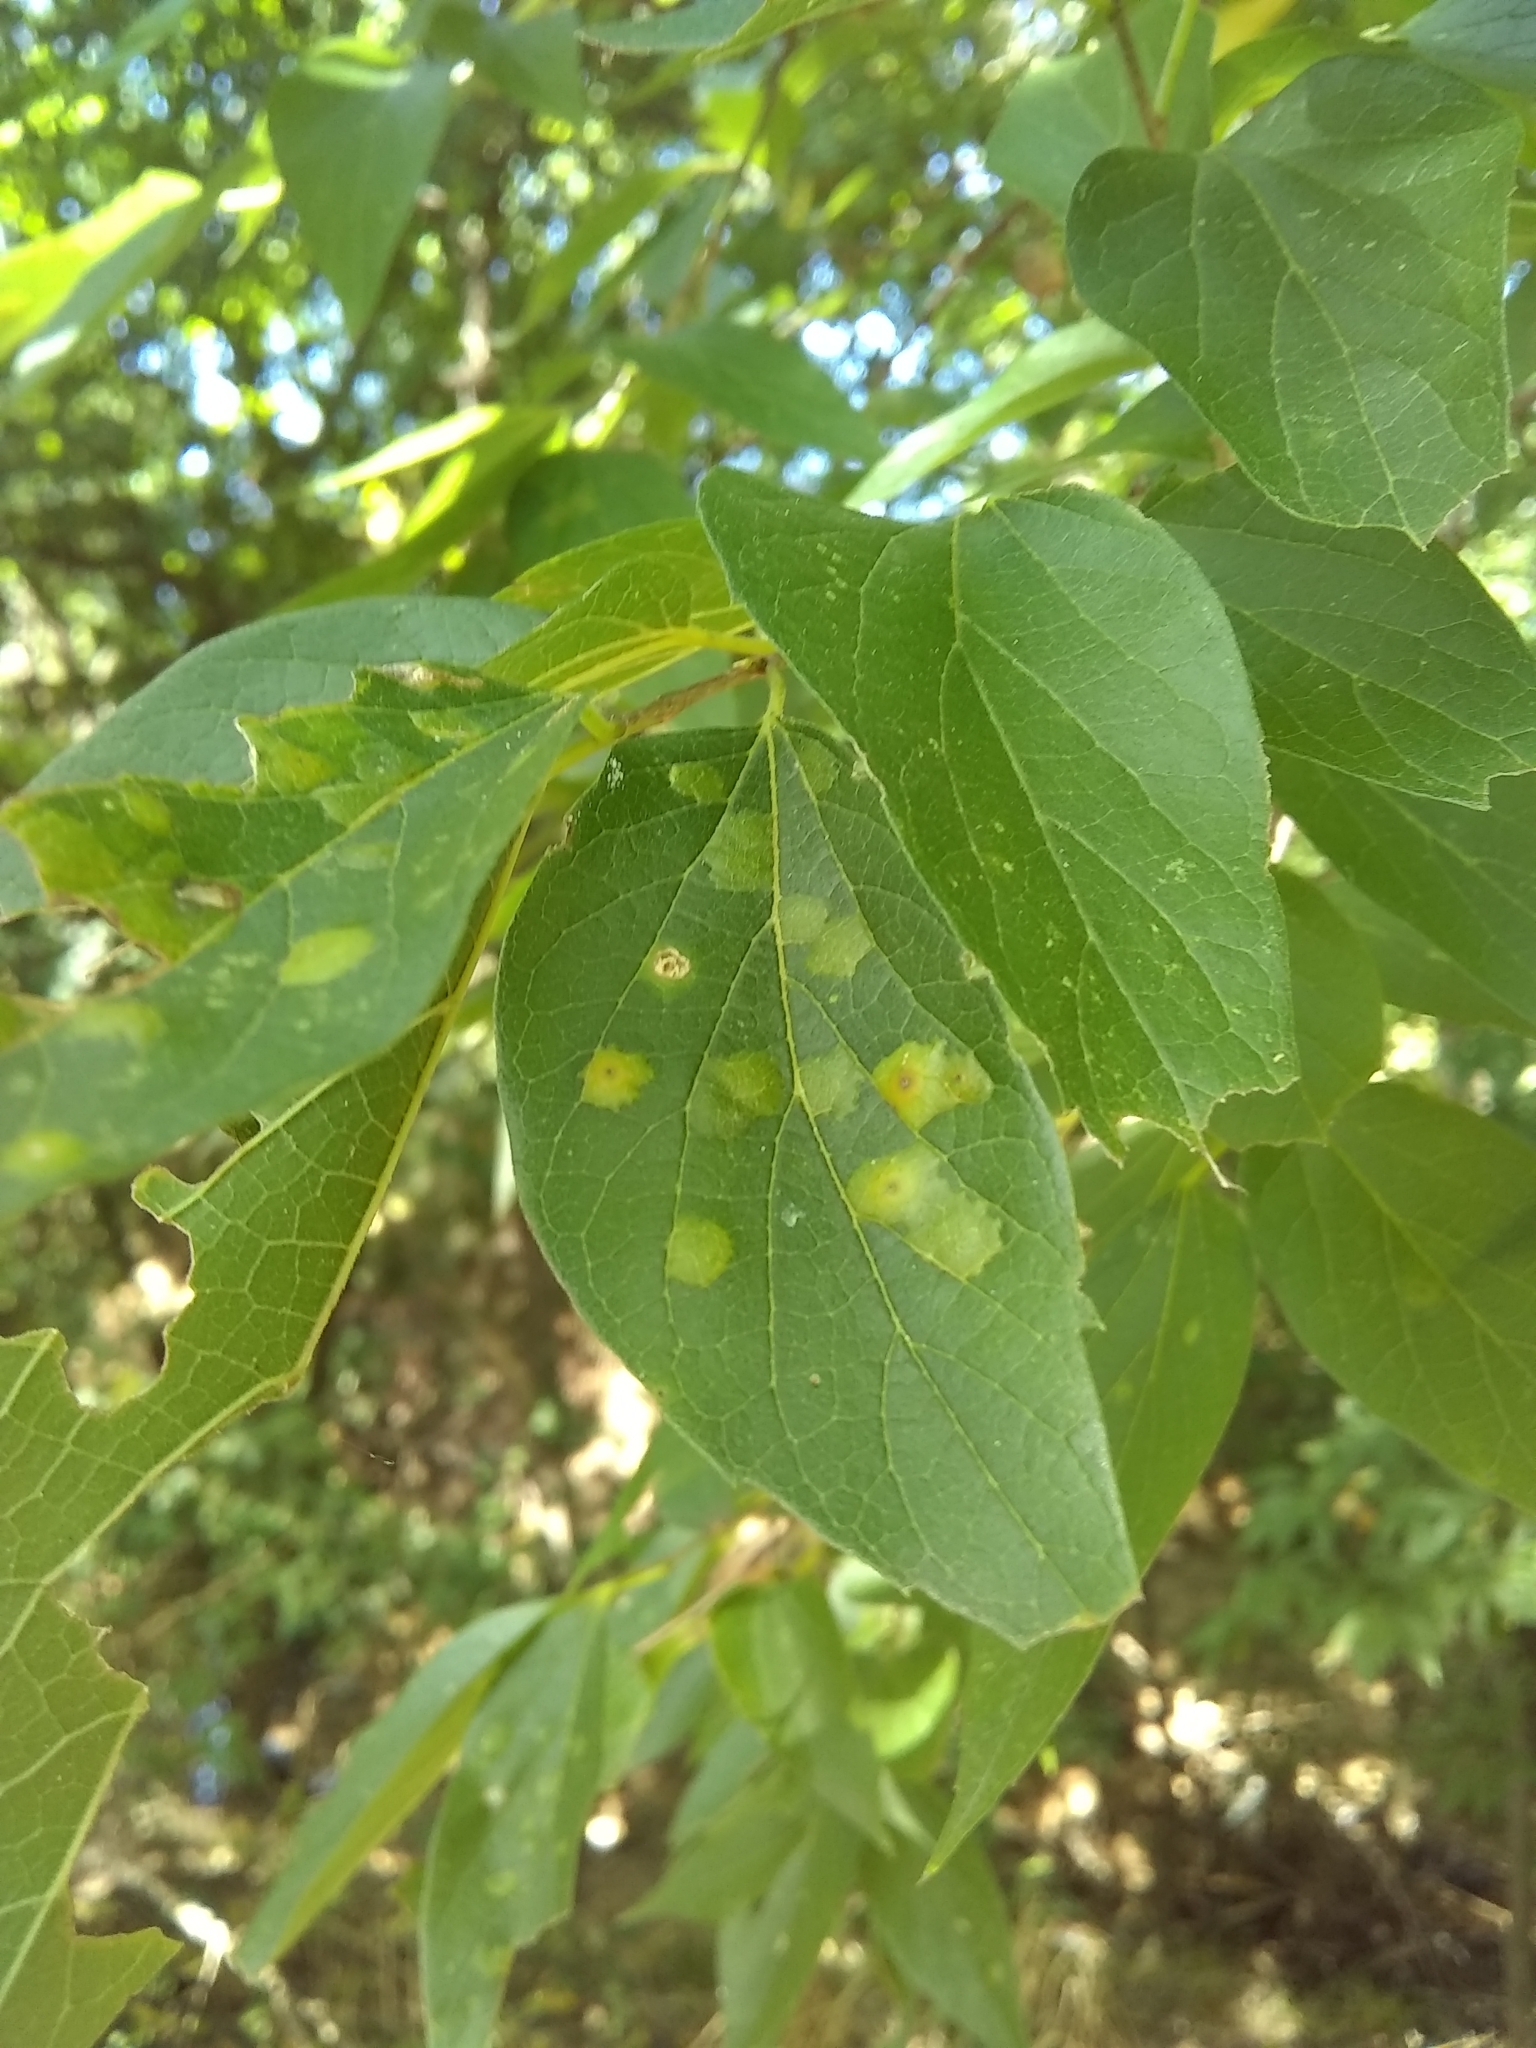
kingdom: Animalia
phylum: Arthropoda
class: Insecta
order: Hemiptera
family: Aphalaridae
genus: Pachypsylla
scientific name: Pachypsylla celtidisvesicula
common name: Hackberry blister gall psyllid
